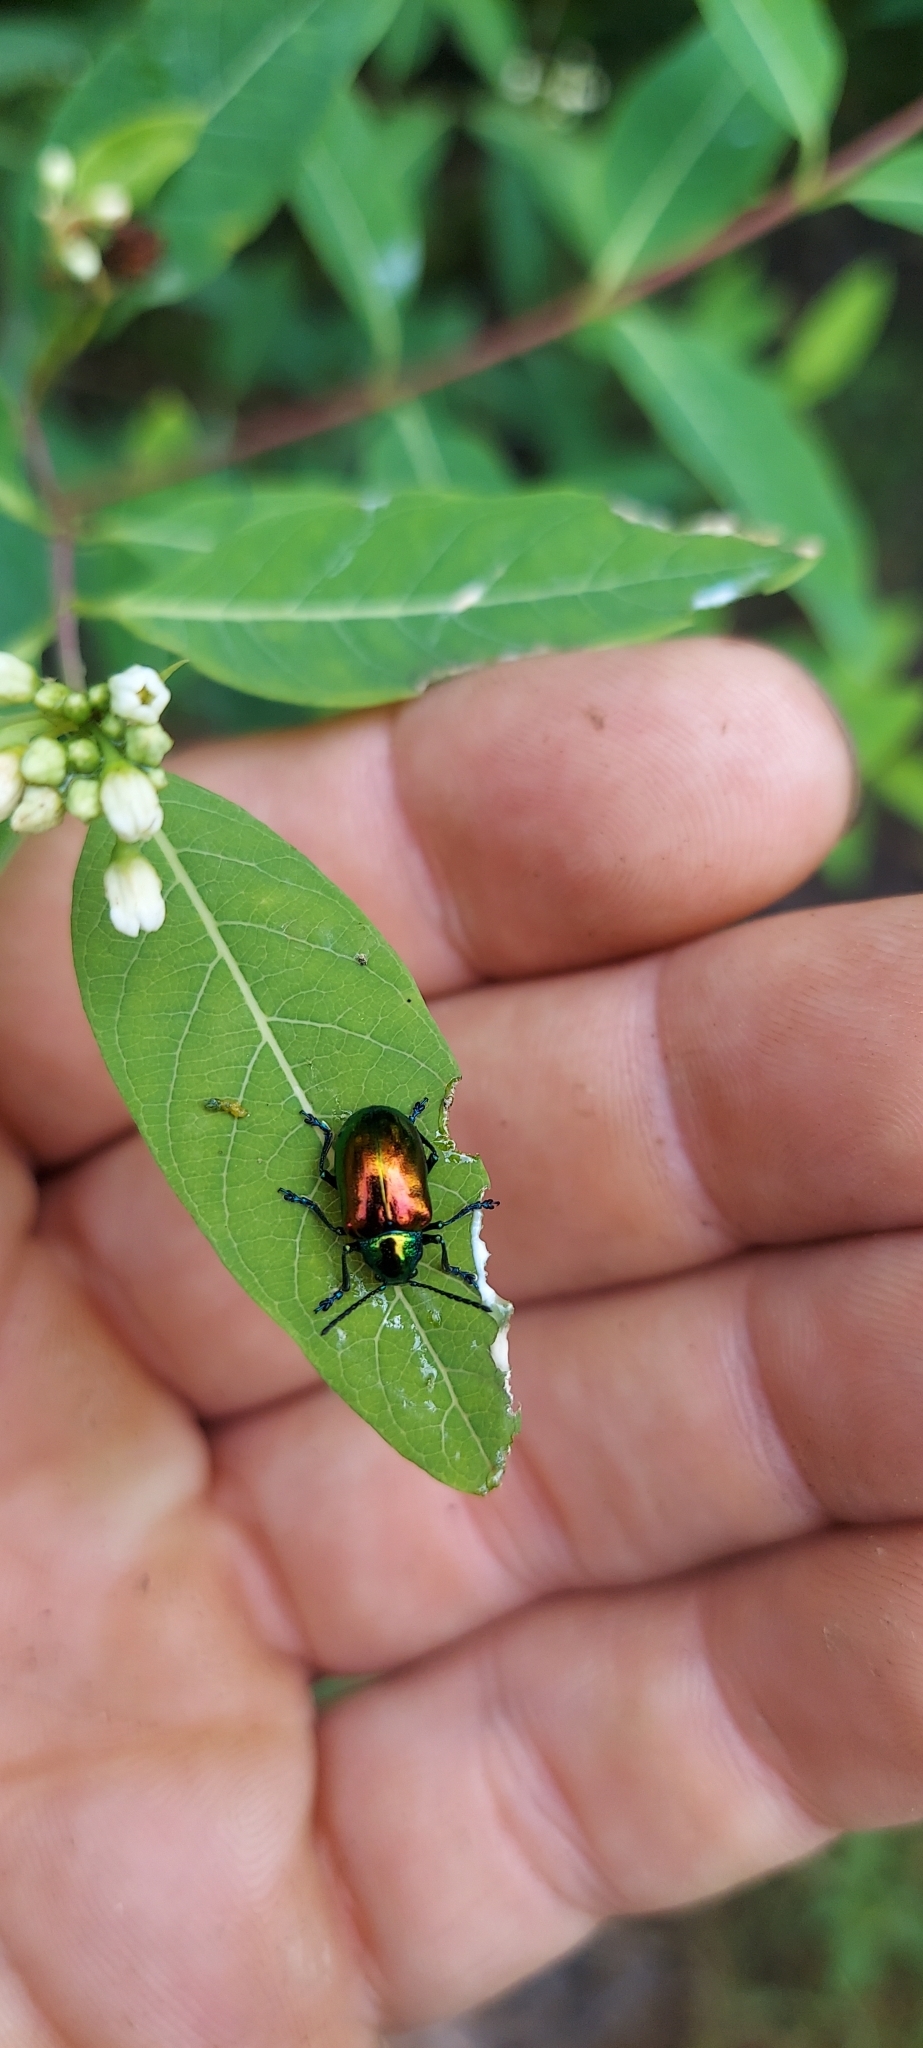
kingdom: Animalia
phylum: Arthropoda
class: Insecta
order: Coleoptera
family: Chrysomelidae
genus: Chrysochus
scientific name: Chrysochus auratus
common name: Dogbane leaf beetle
